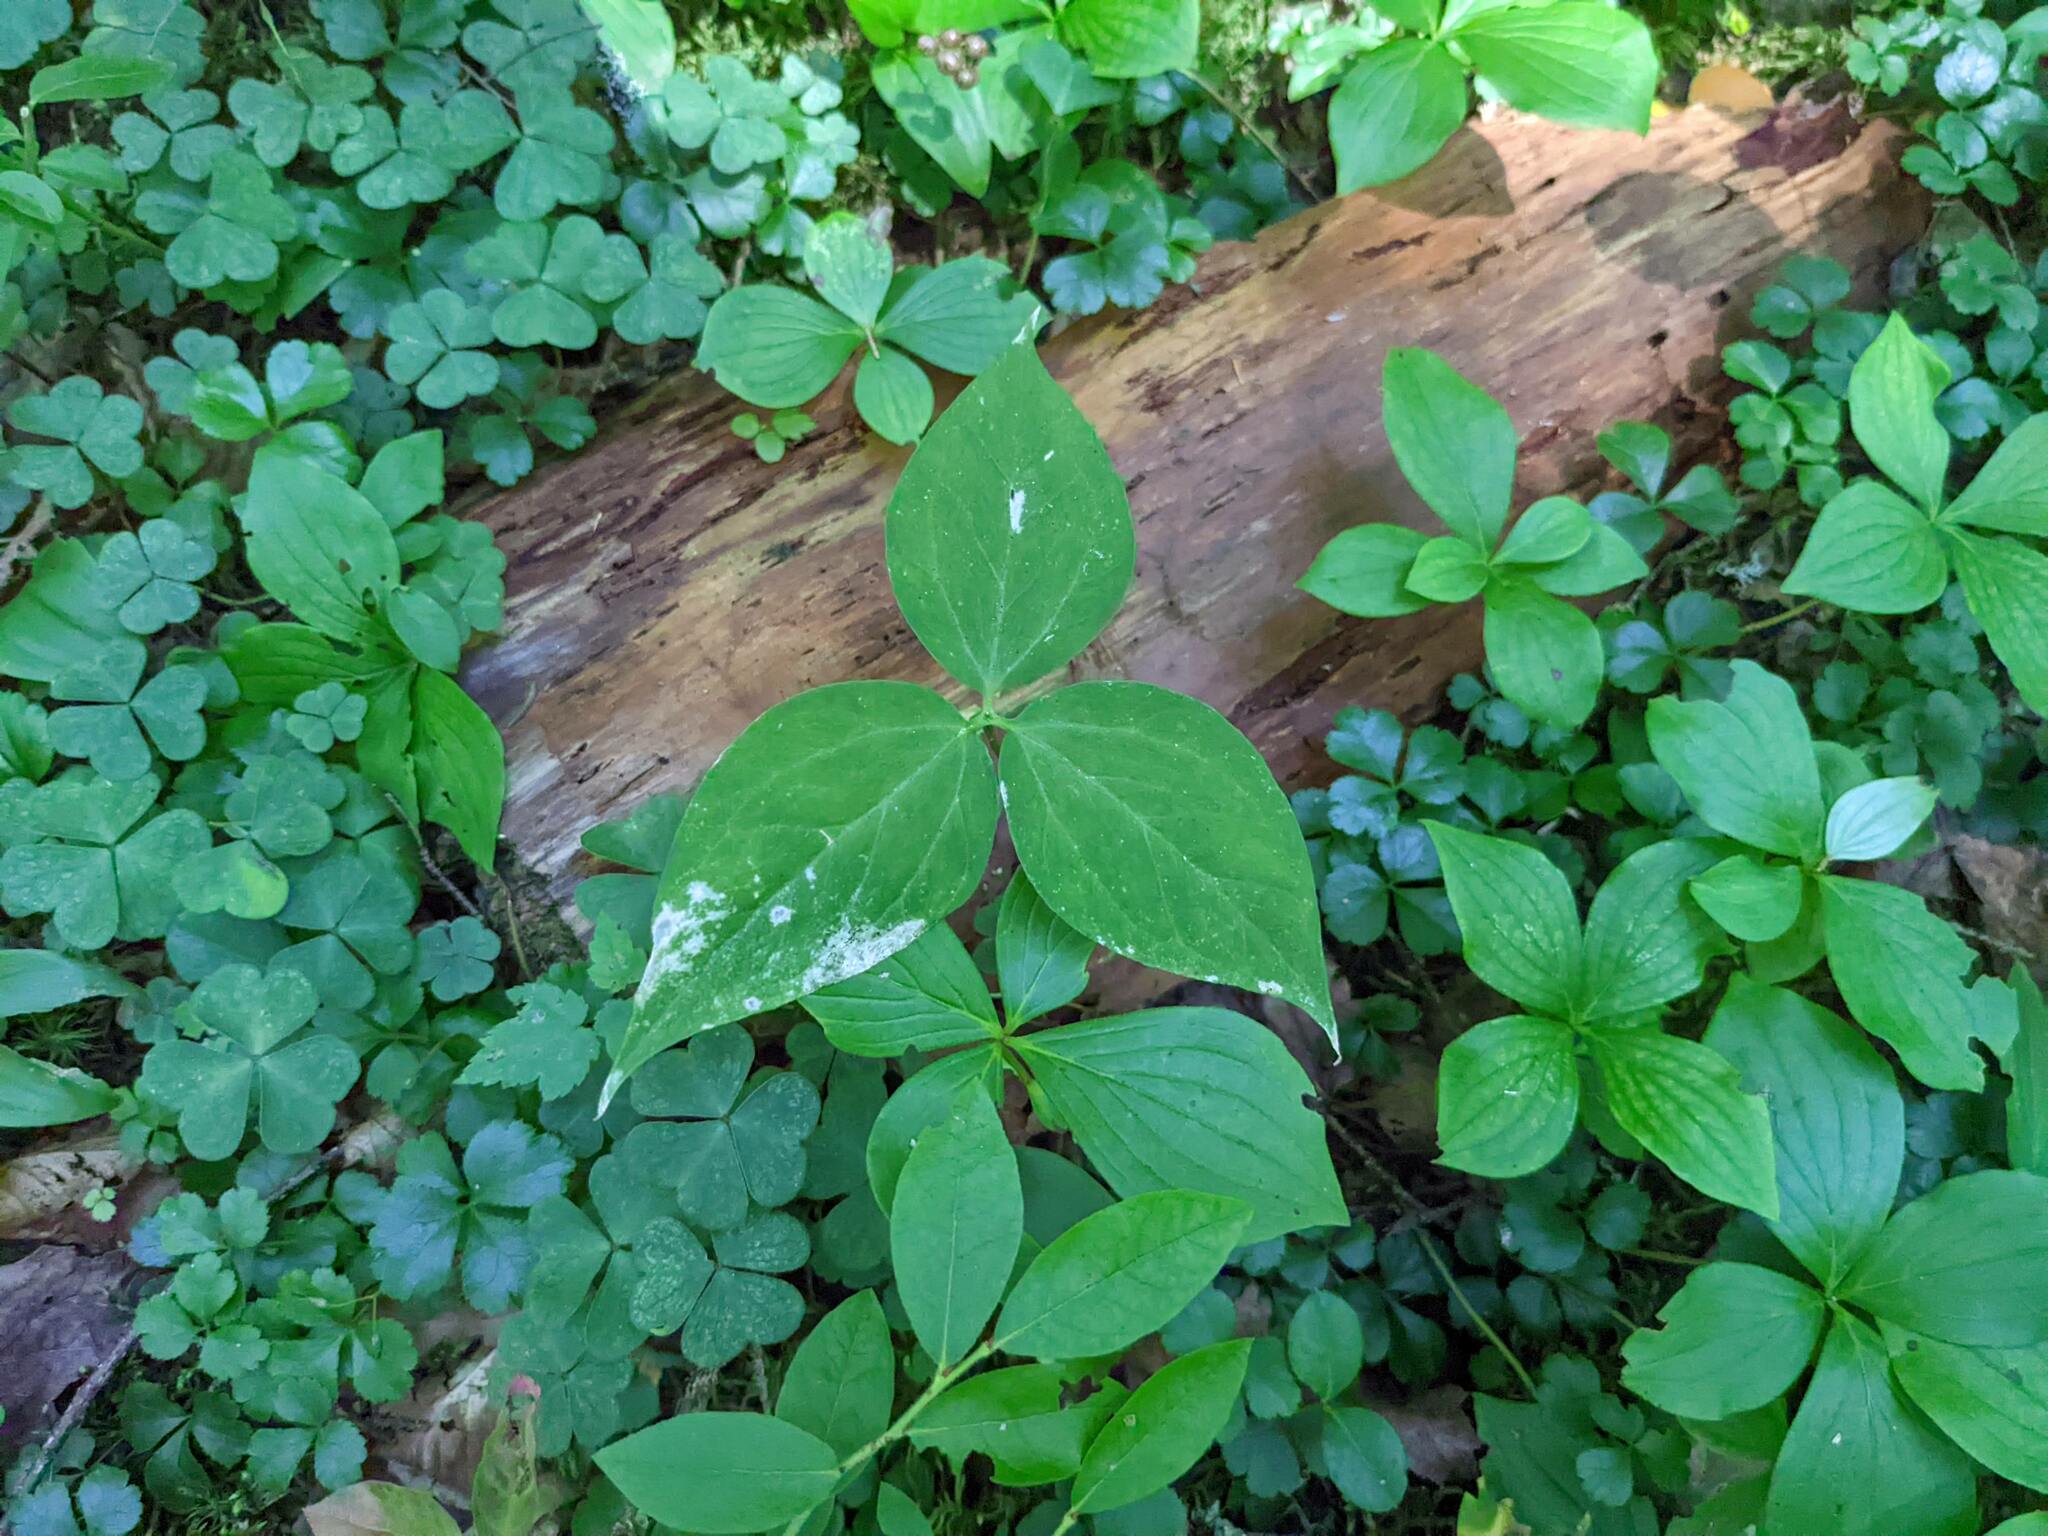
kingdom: Plantae
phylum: Tracheophyta
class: Liliopsida
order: Liliales
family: Melanthiaceae
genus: Trillium
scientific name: Trillium undulatum
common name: Paint trillium
